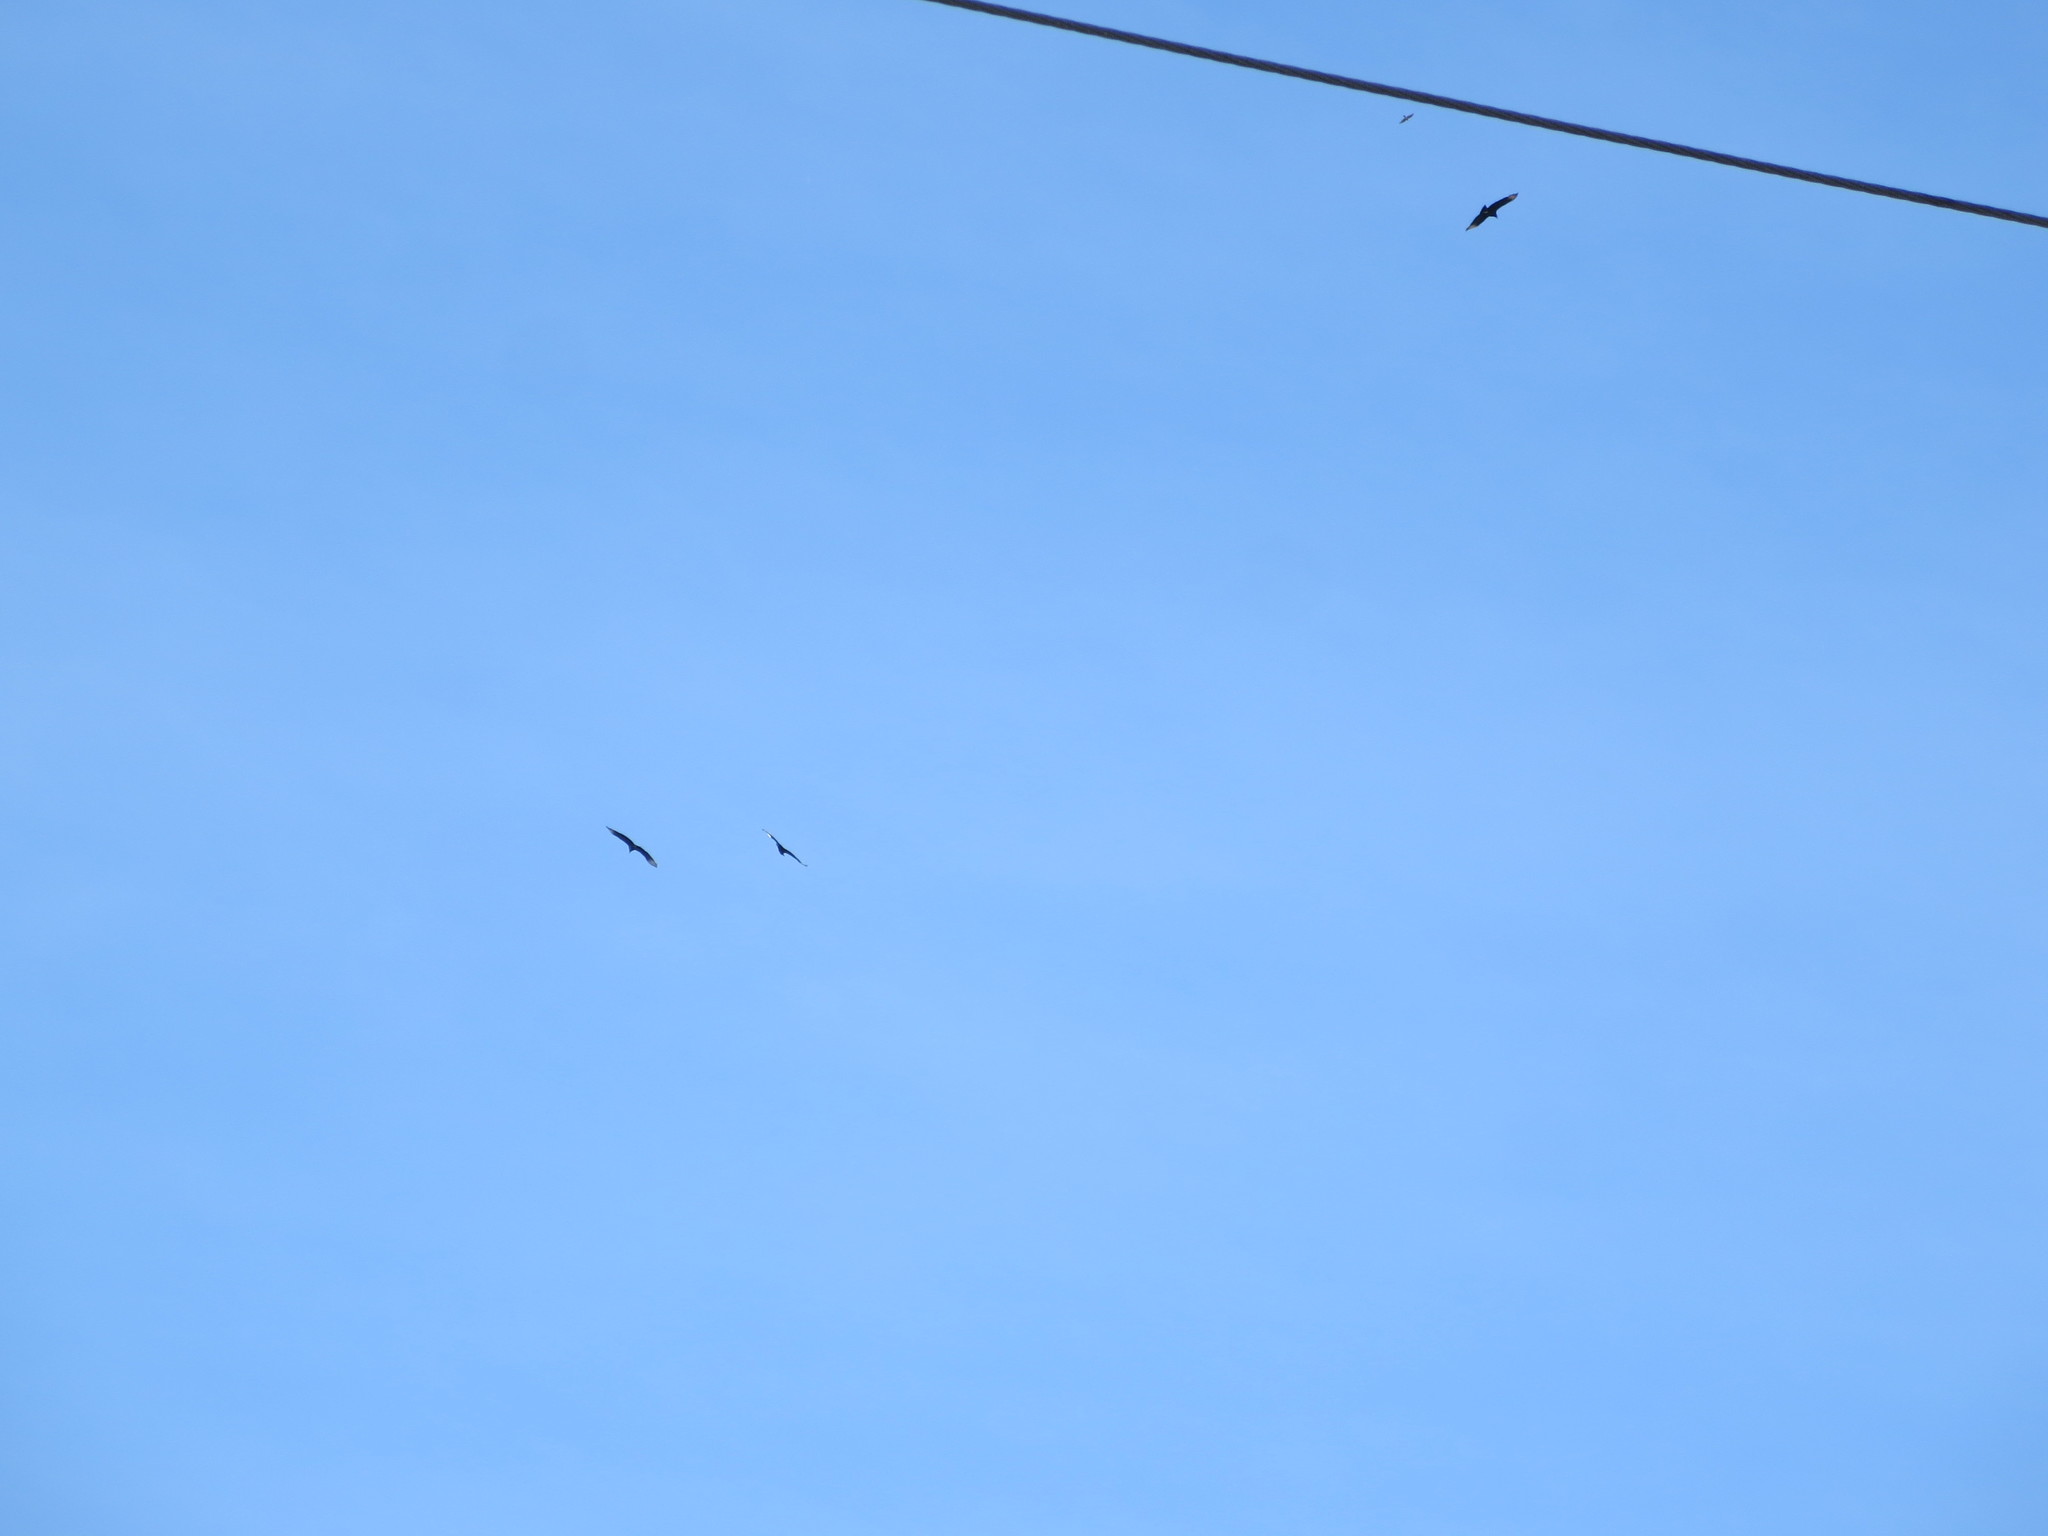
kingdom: Animalia
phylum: Chordata
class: Aves
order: Accipitriformes
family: Cathartidae
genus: Coragyps
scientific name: Coragyps atratus
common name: Black vulture
